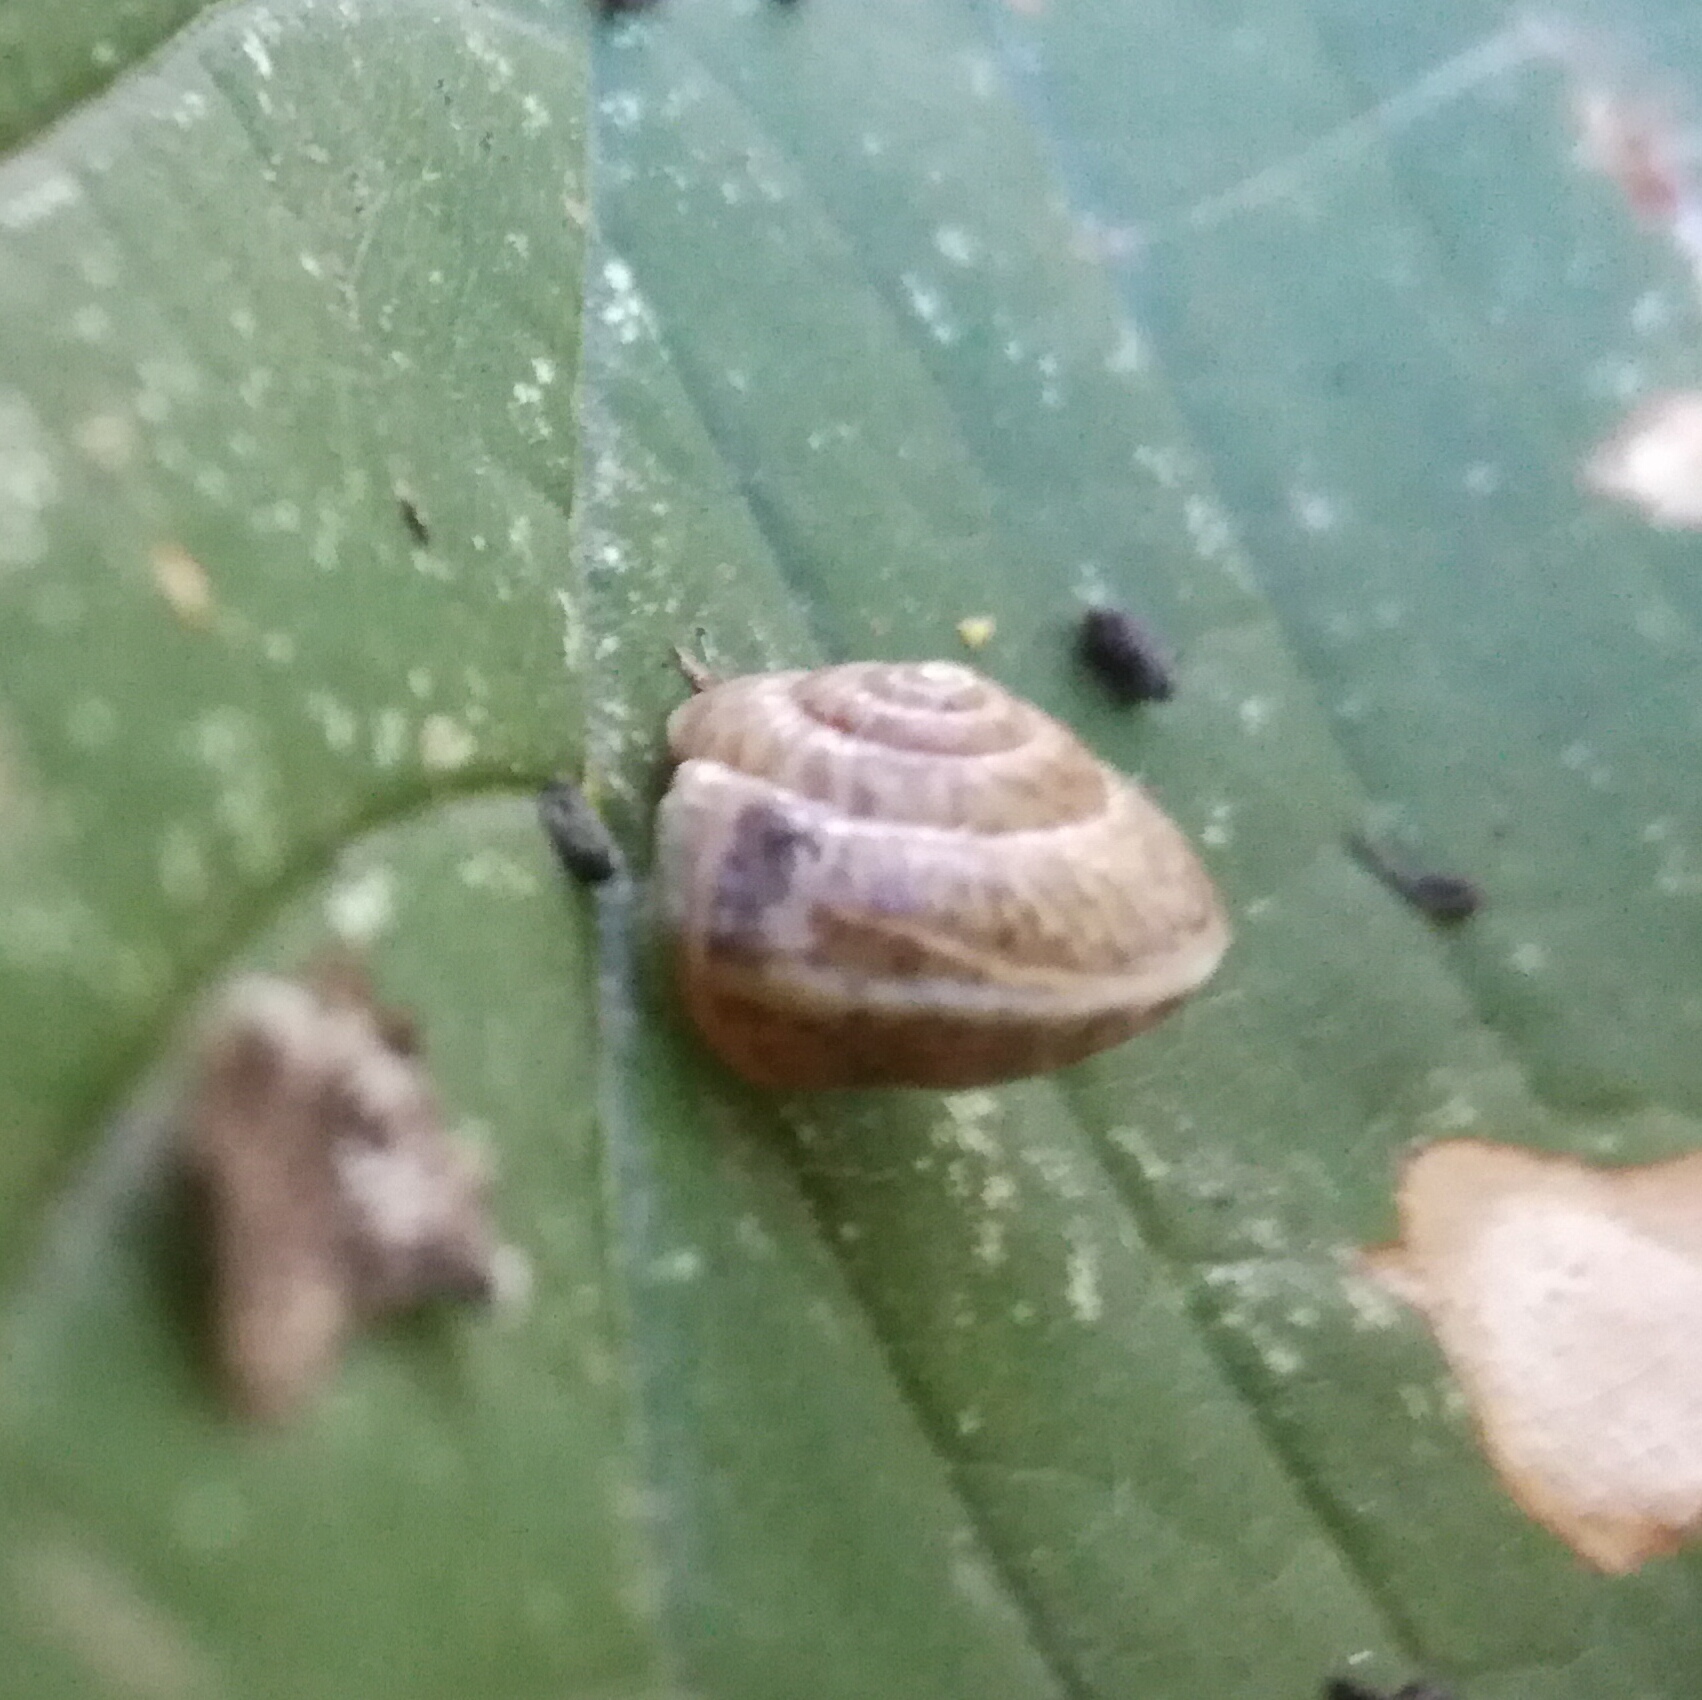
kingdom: Animalia
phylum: Mollusca
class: Gastropoda
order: Stylommatophora
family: Hygromiidae
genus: Hygromia
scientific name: Hygromia cinctella
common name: Girdled snail
